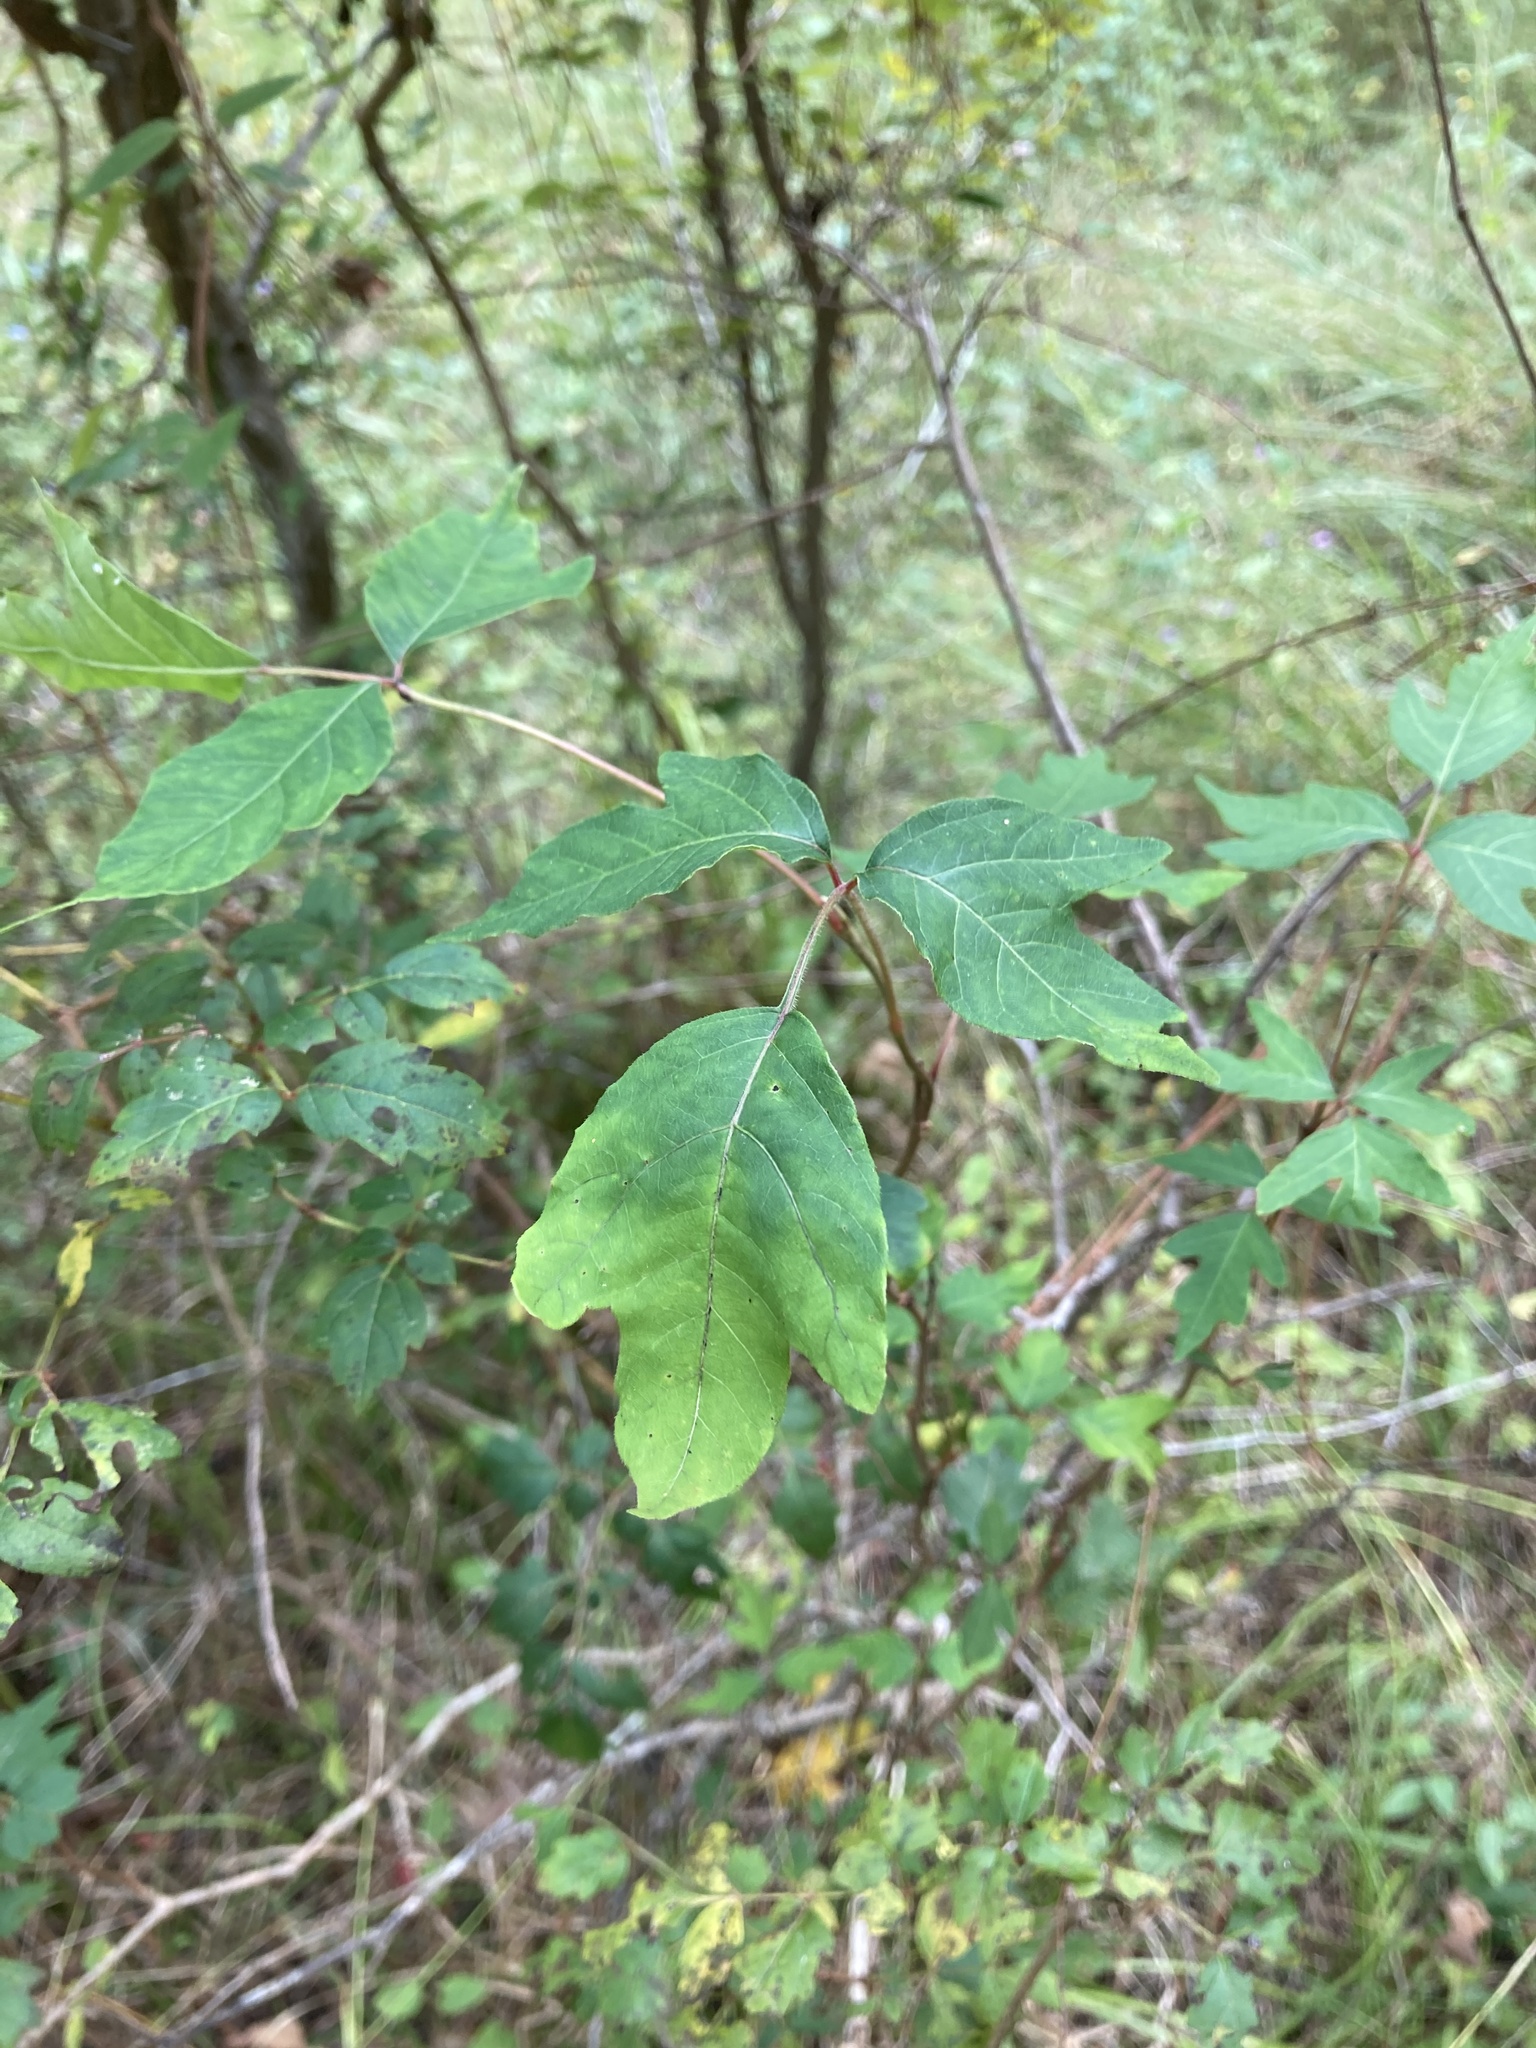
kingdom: Plantae
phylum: Tracheophyta
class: Magnoliopsida
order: Sapindales
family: Anacardiaceae
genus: Toxicodendron
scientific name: Toxicodendron radicans
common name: Poison ivy
